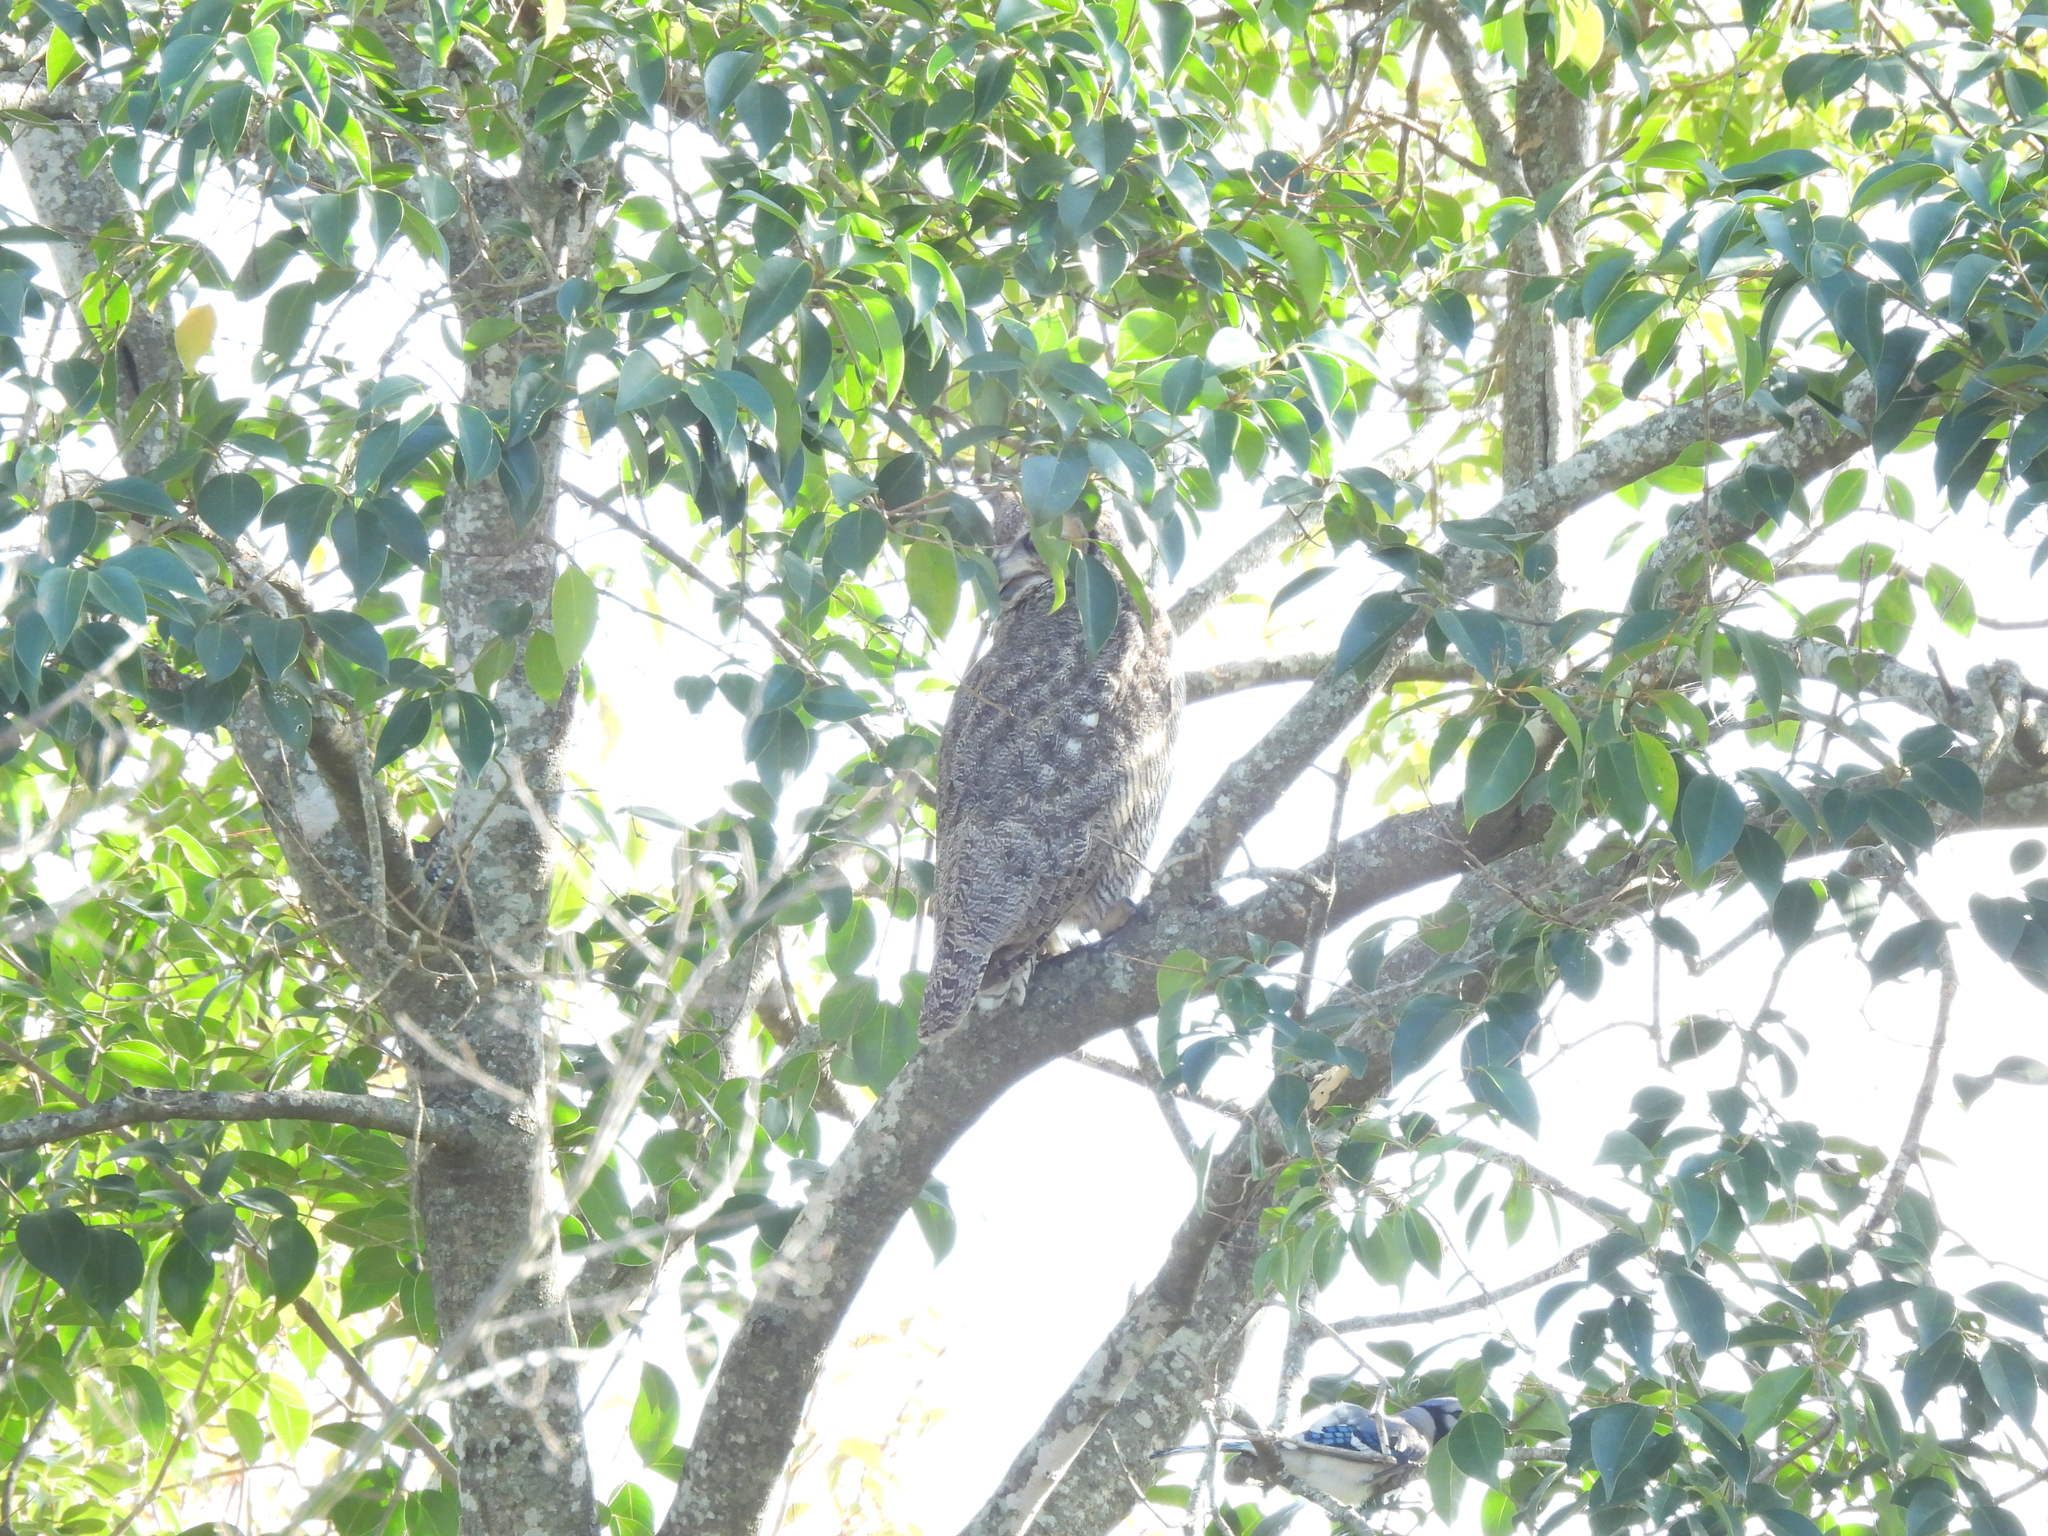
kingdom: Animalia
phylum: Chordata
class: Aves
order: Strigiformes
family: Strigidae
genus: Bubo
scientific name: Bubo virginianus
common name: Great horned owl
